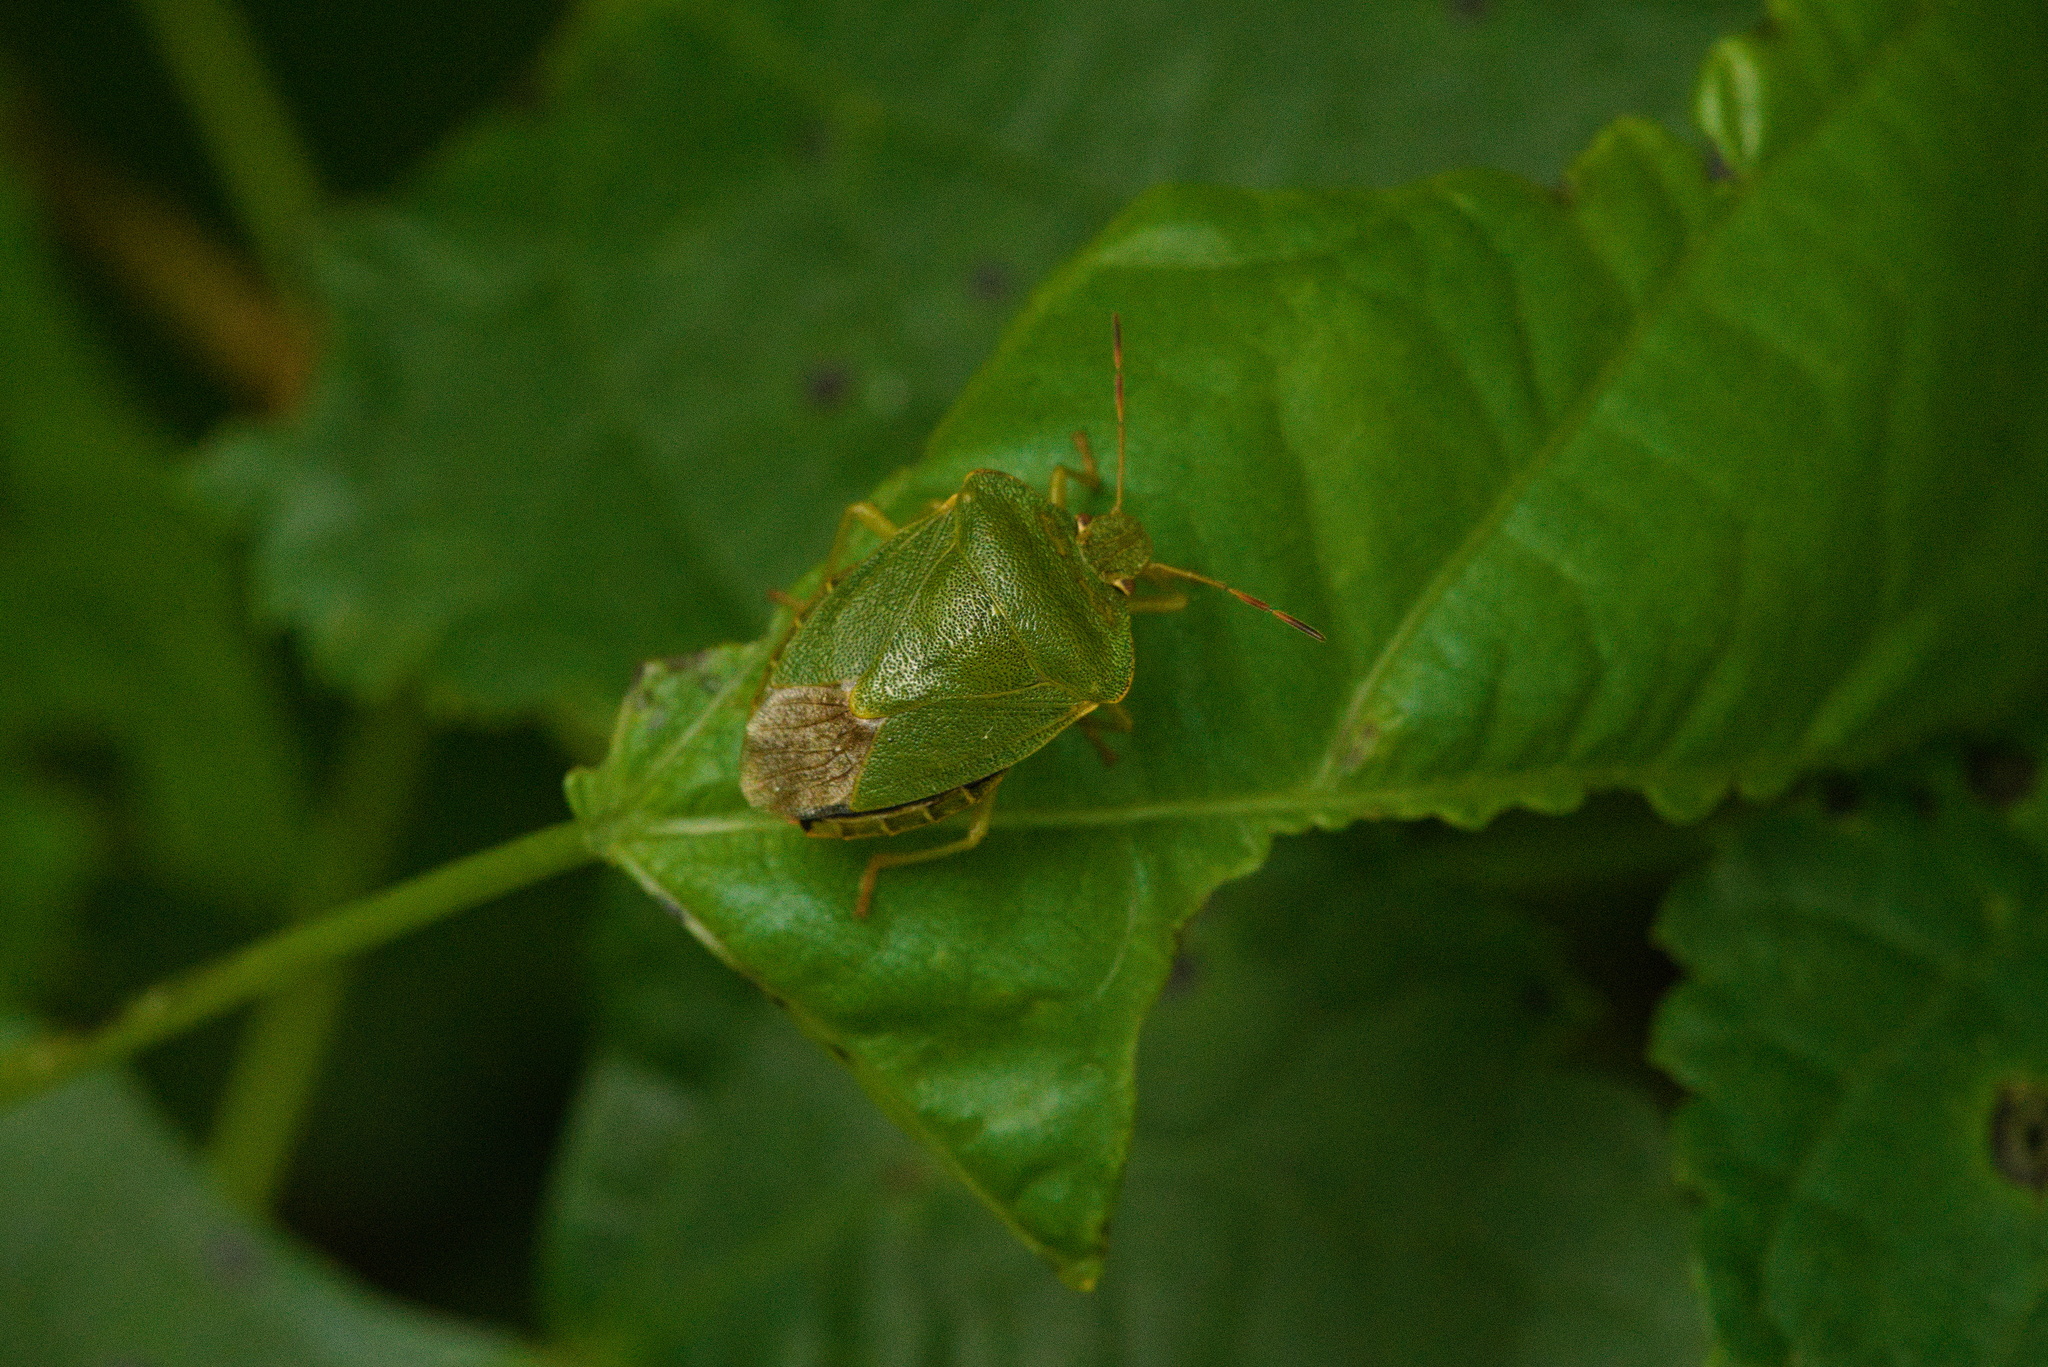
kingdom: Animalia
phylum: Arthropoda
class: Insecta
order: Hemiptera
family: Pentatomidae
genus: Palomena
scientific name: Palomena prasina
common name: Green shieldbug
